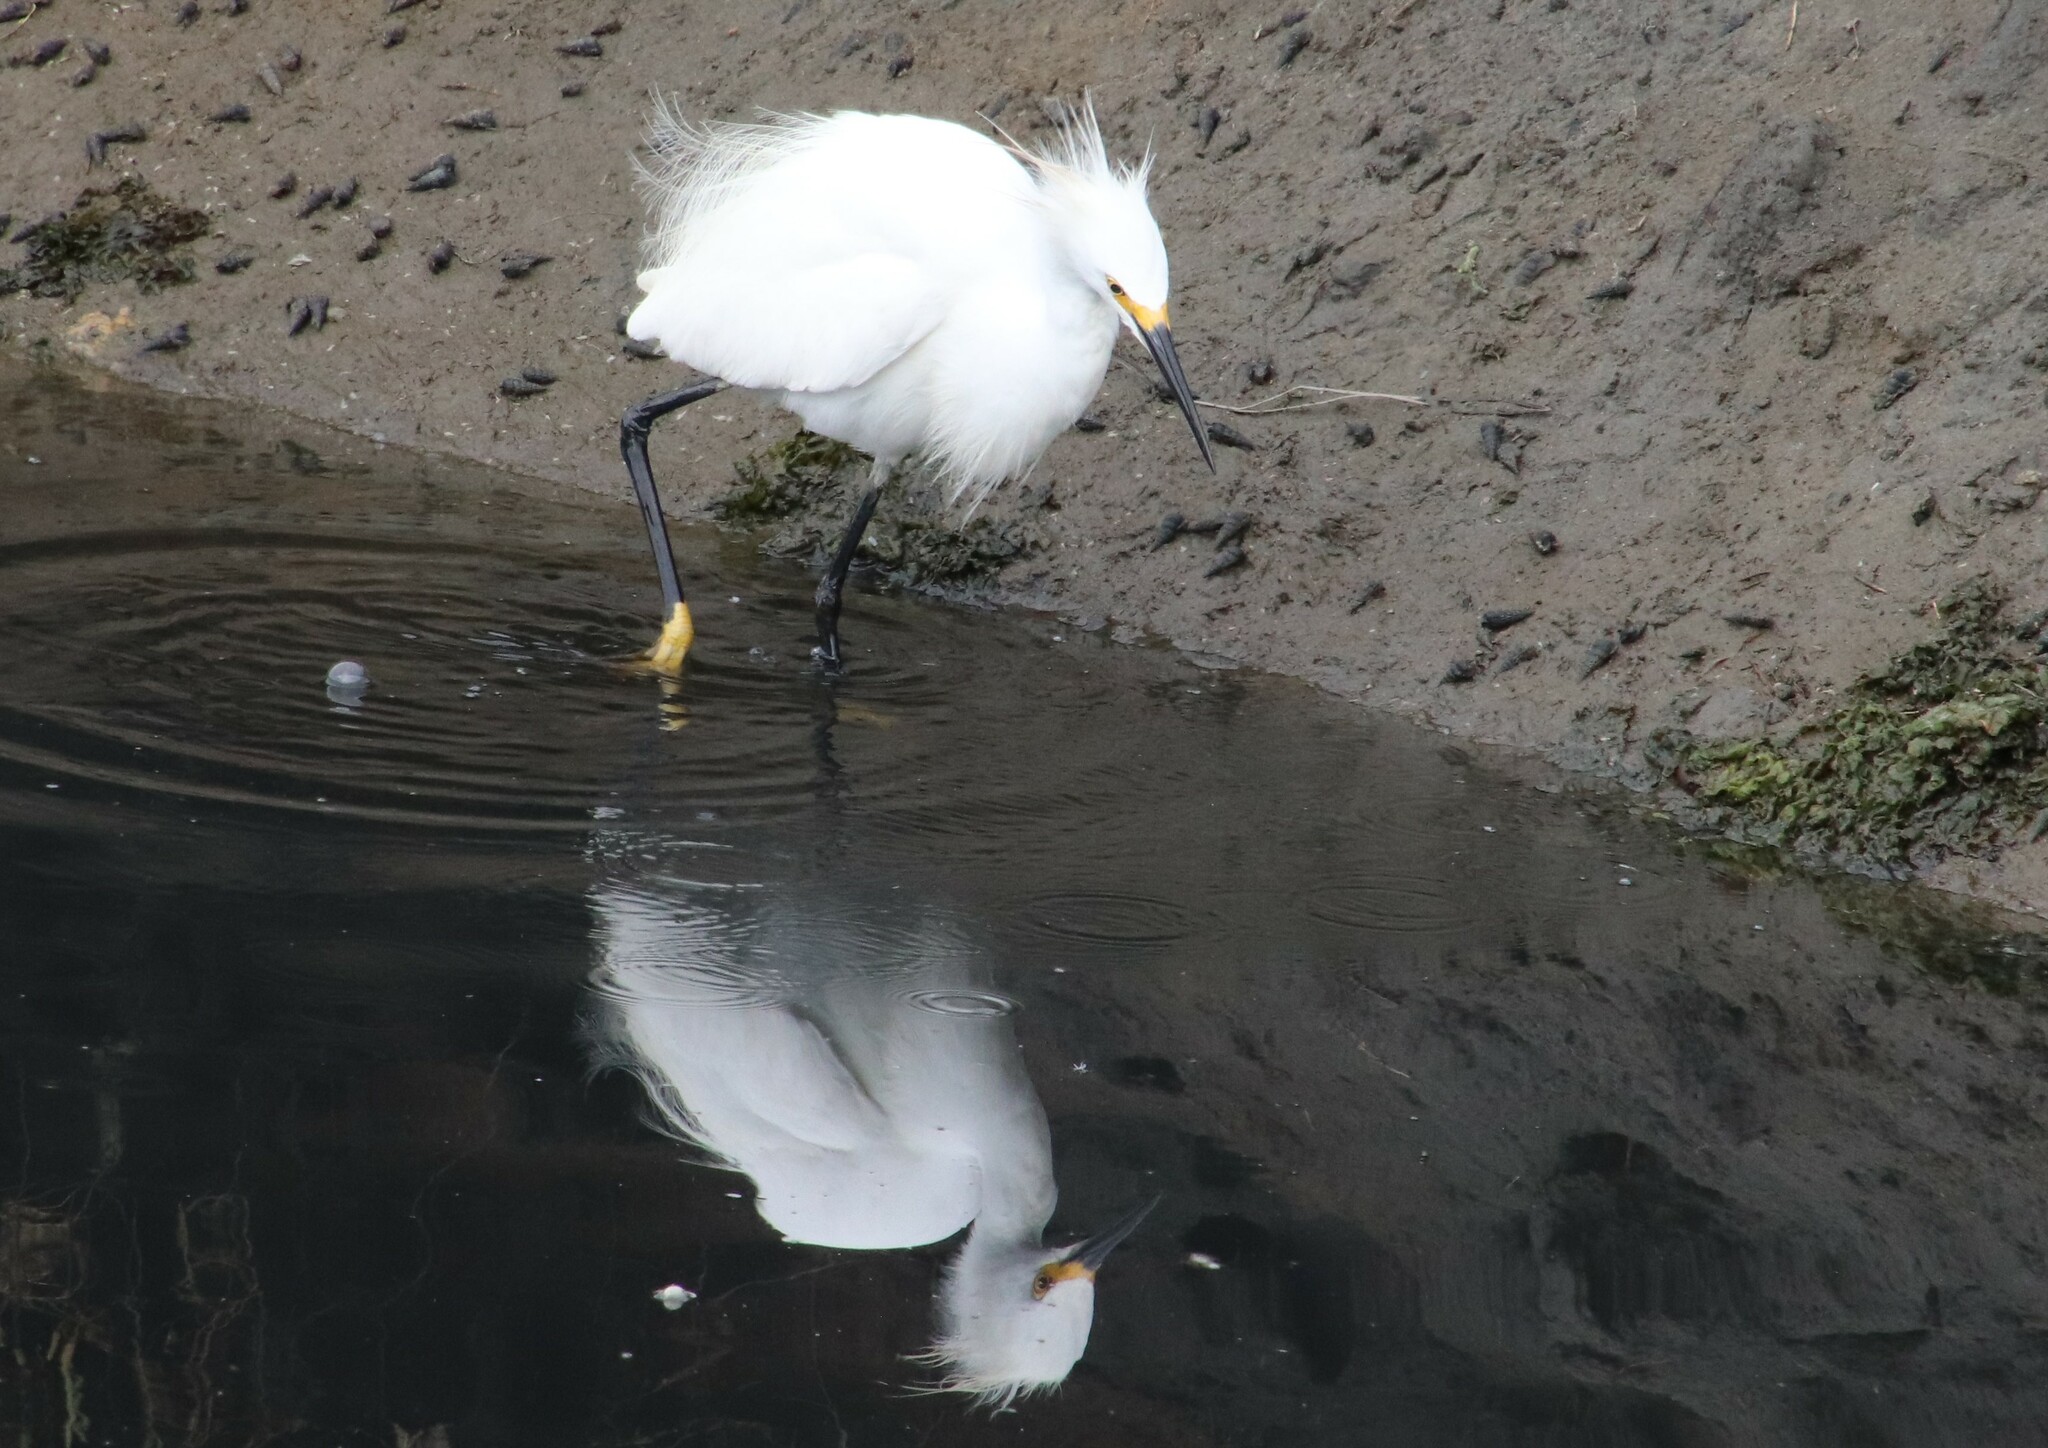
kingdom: Animalia
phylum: Chordata
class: Aves
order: Pelecaniformes
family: Ardeidae
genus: Egretta
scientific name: Egretta thula
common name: Snowy egret
